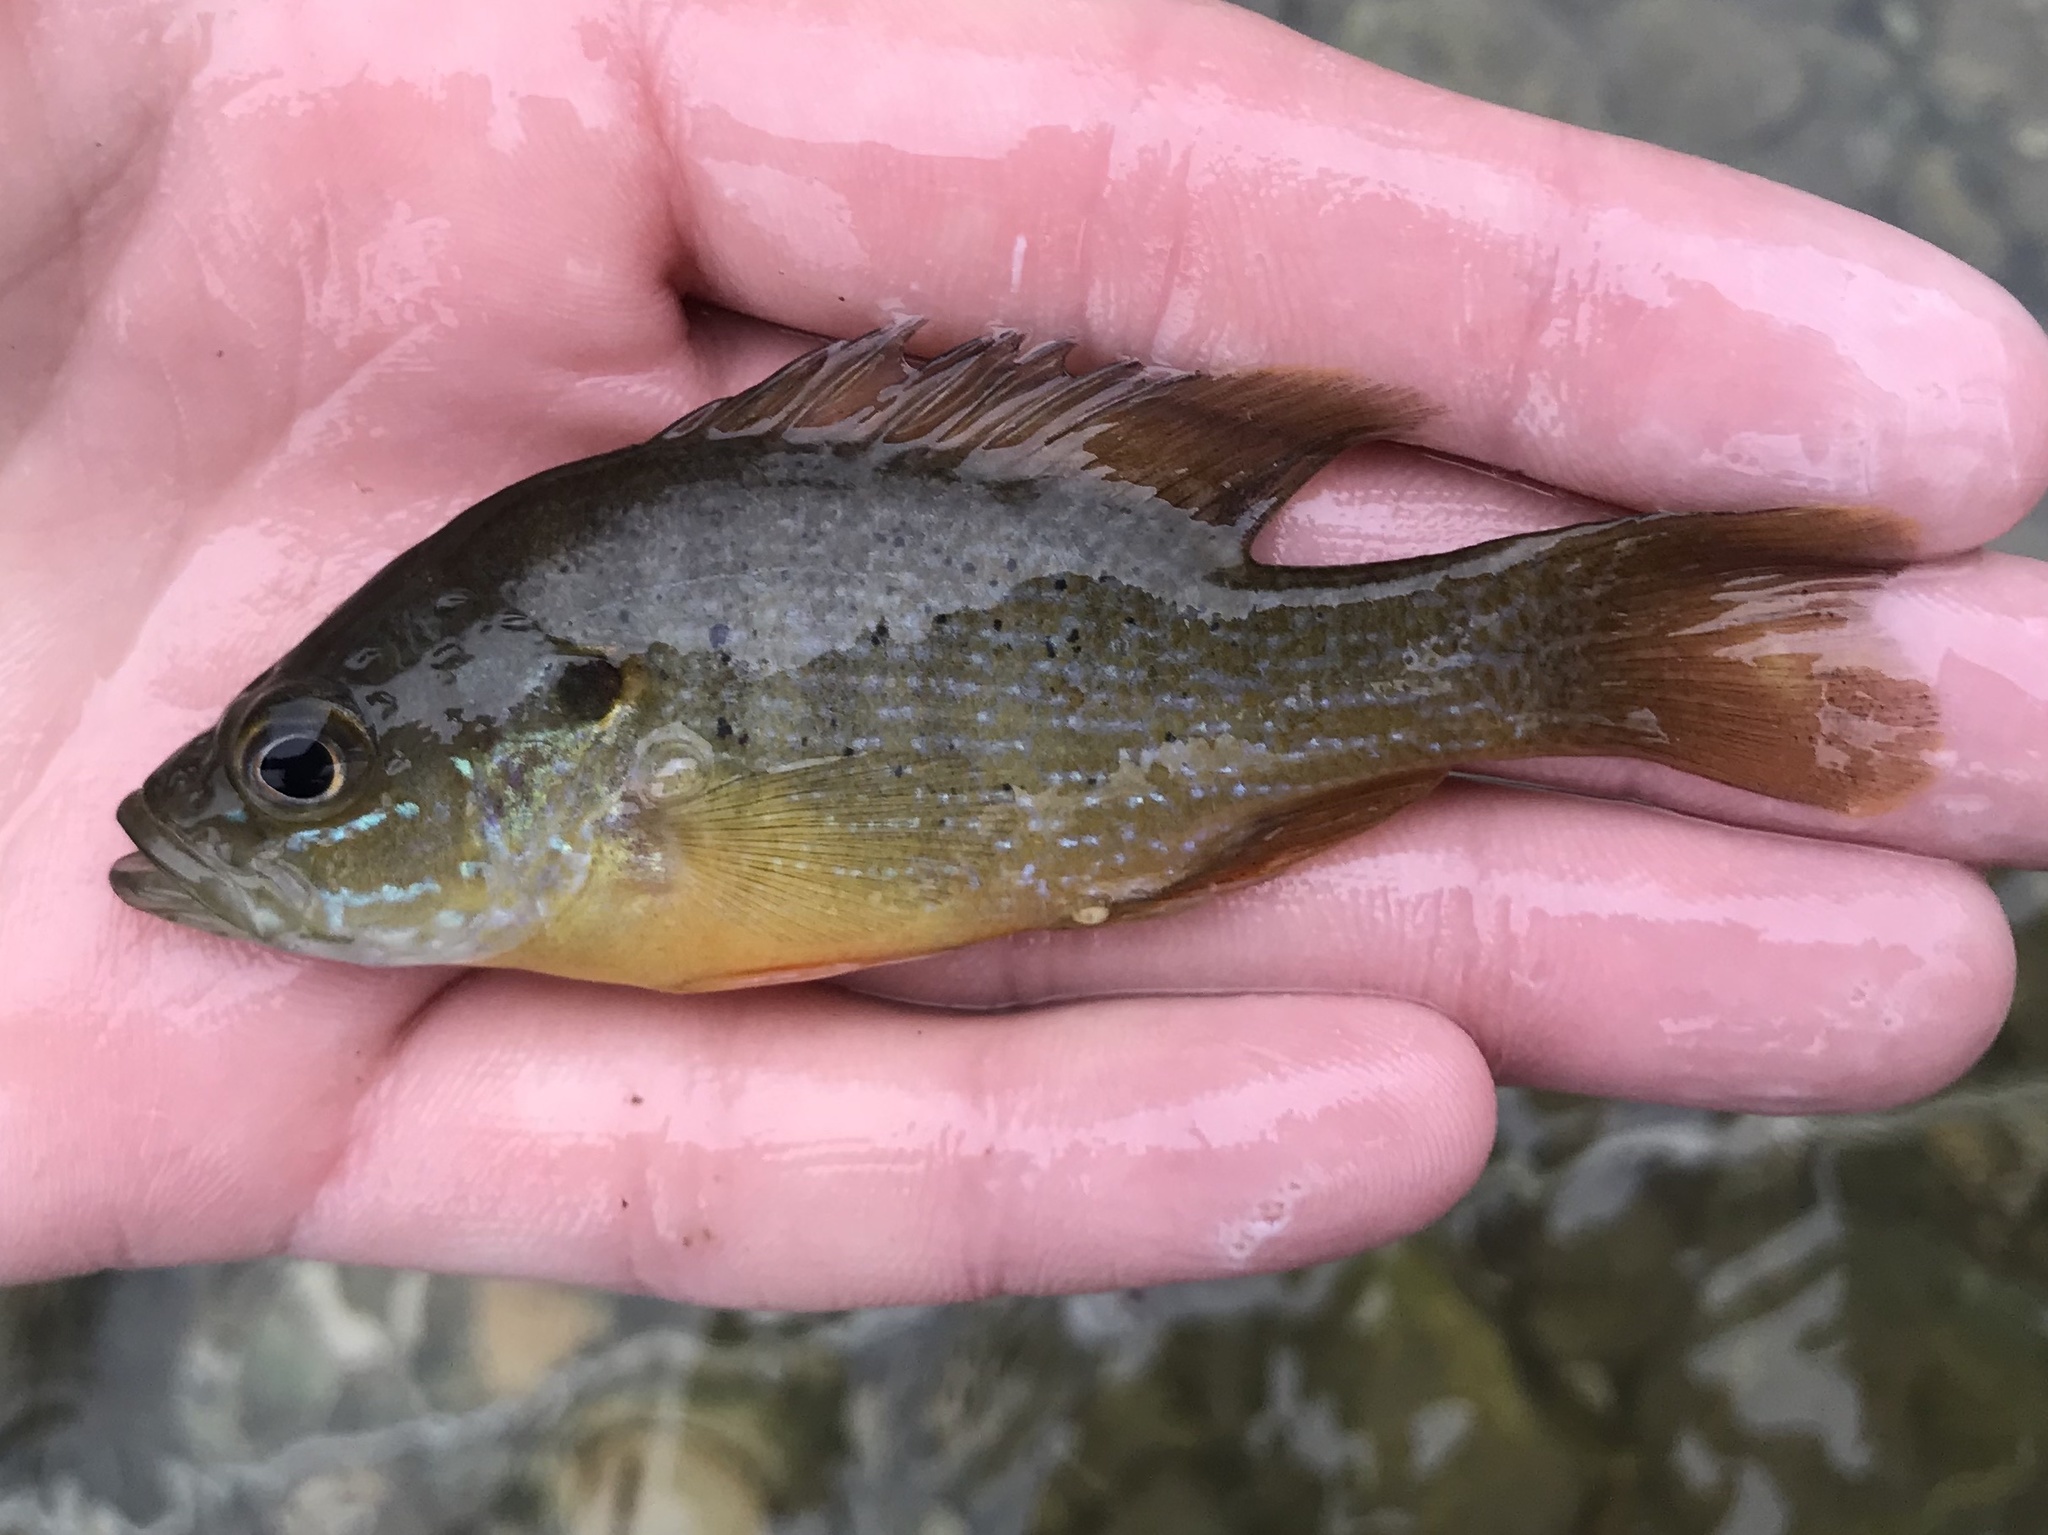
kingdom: Animalia
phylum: Chordata
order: Perciformes
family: Centrarchidae
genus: Lepomis
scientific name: Lepomis cyanellus
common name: Green sunfish
